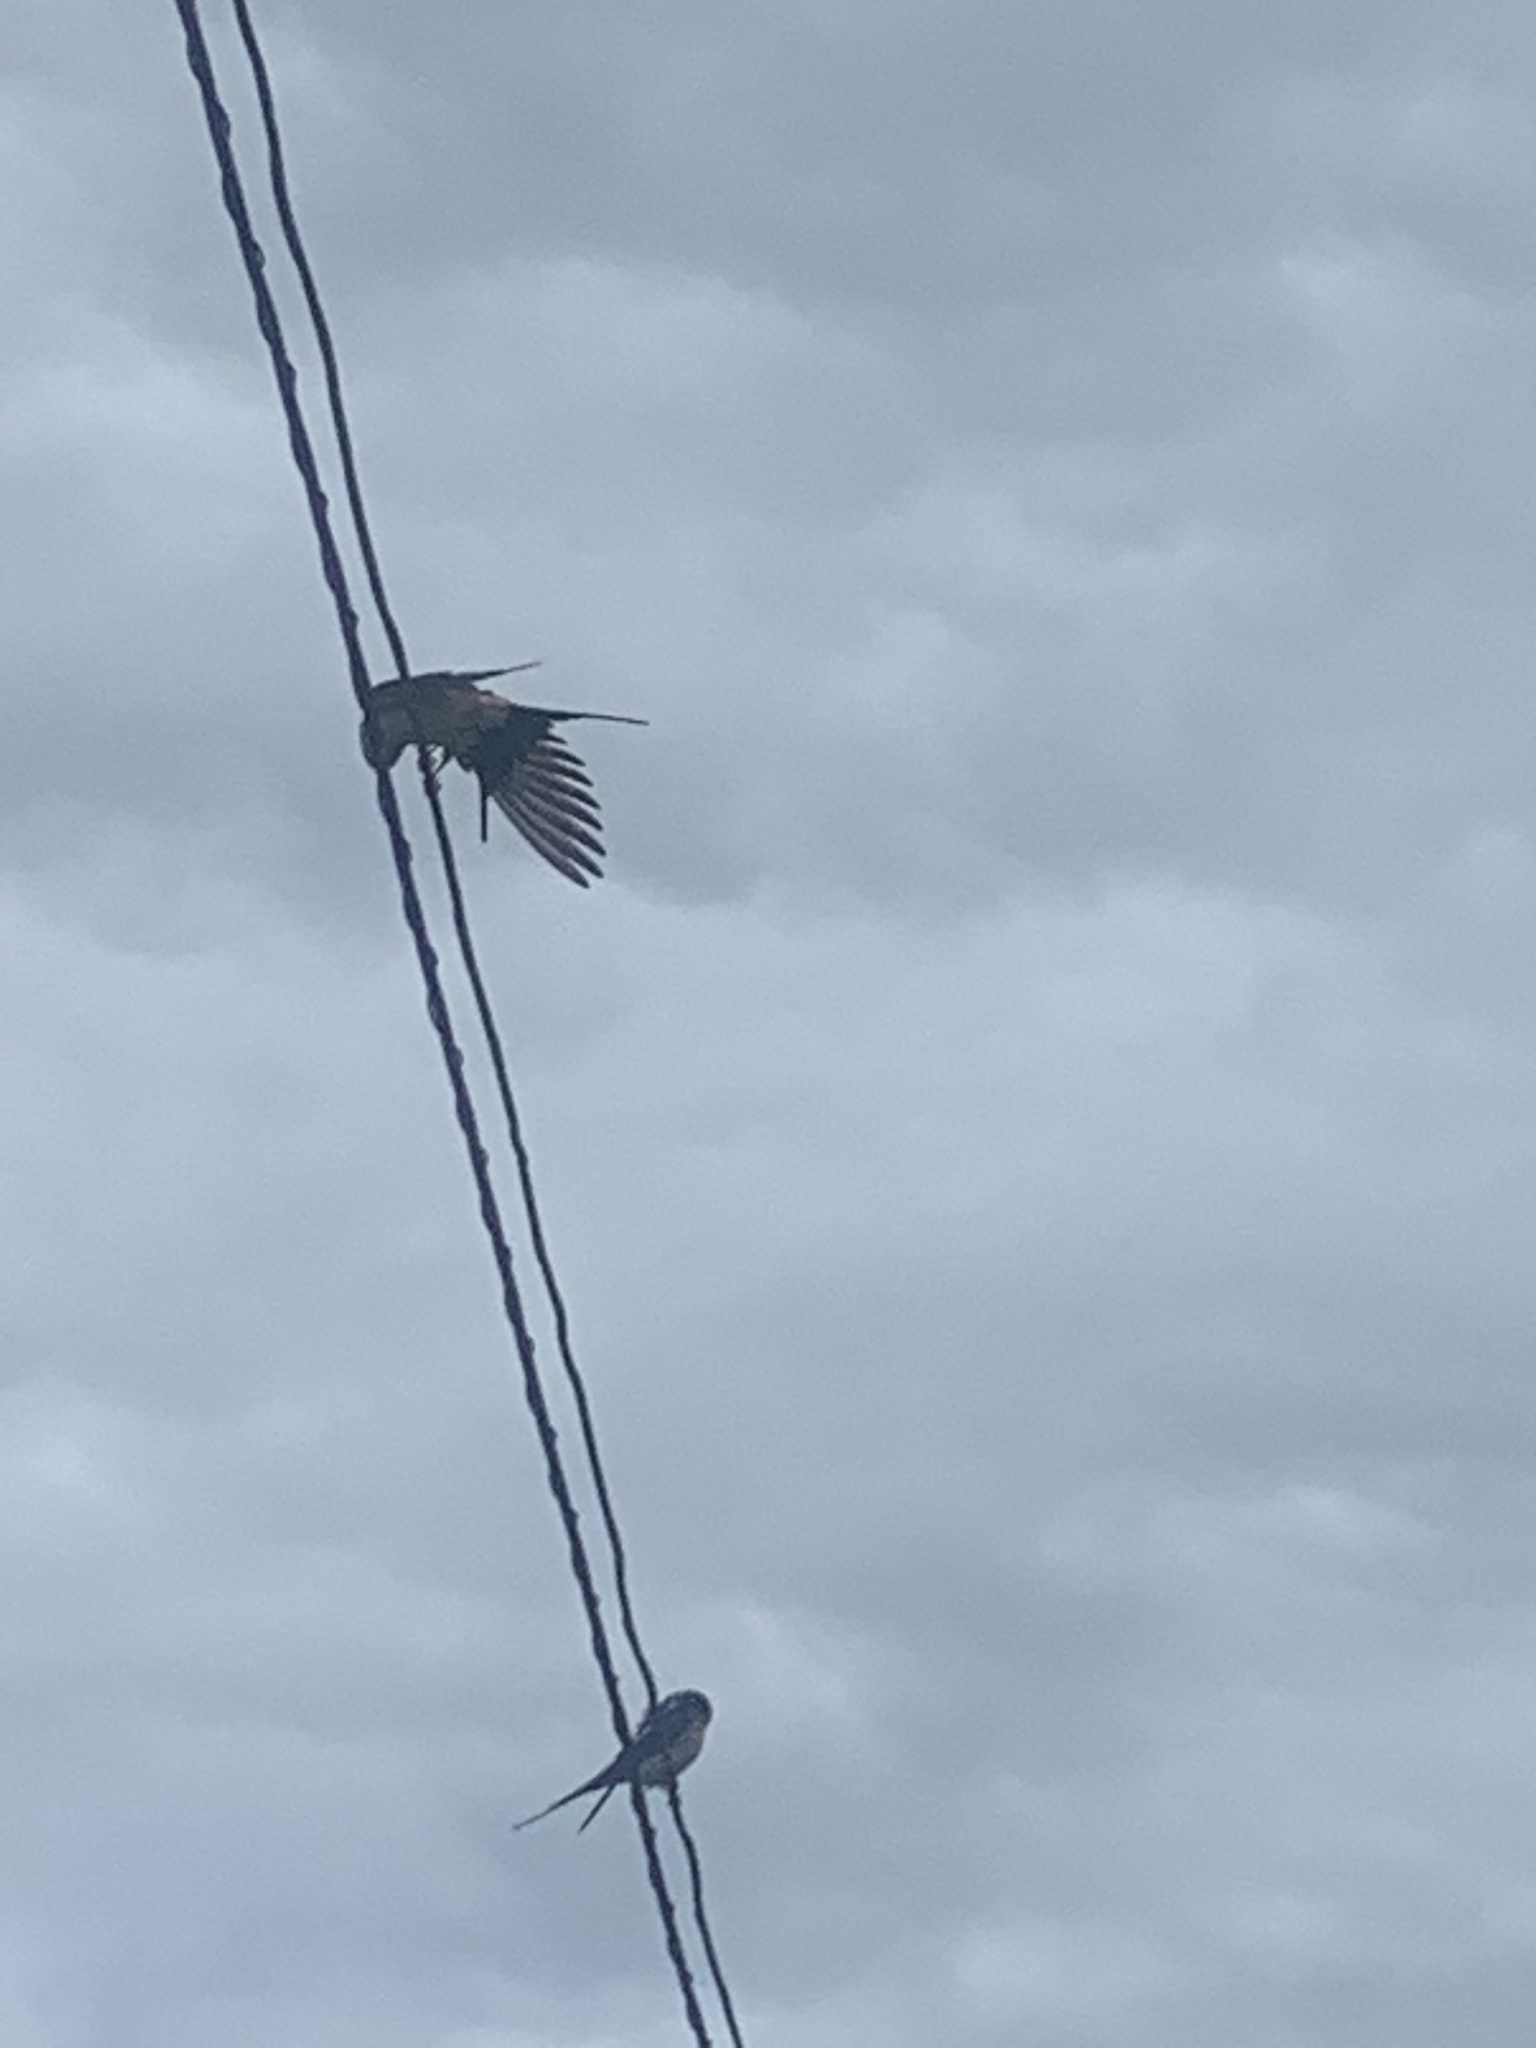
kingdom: Animalia
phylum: Chordata
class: Aves
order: Passeriformes
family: Hirundinidae
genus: Cecropis
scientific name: Cecropis daurica
